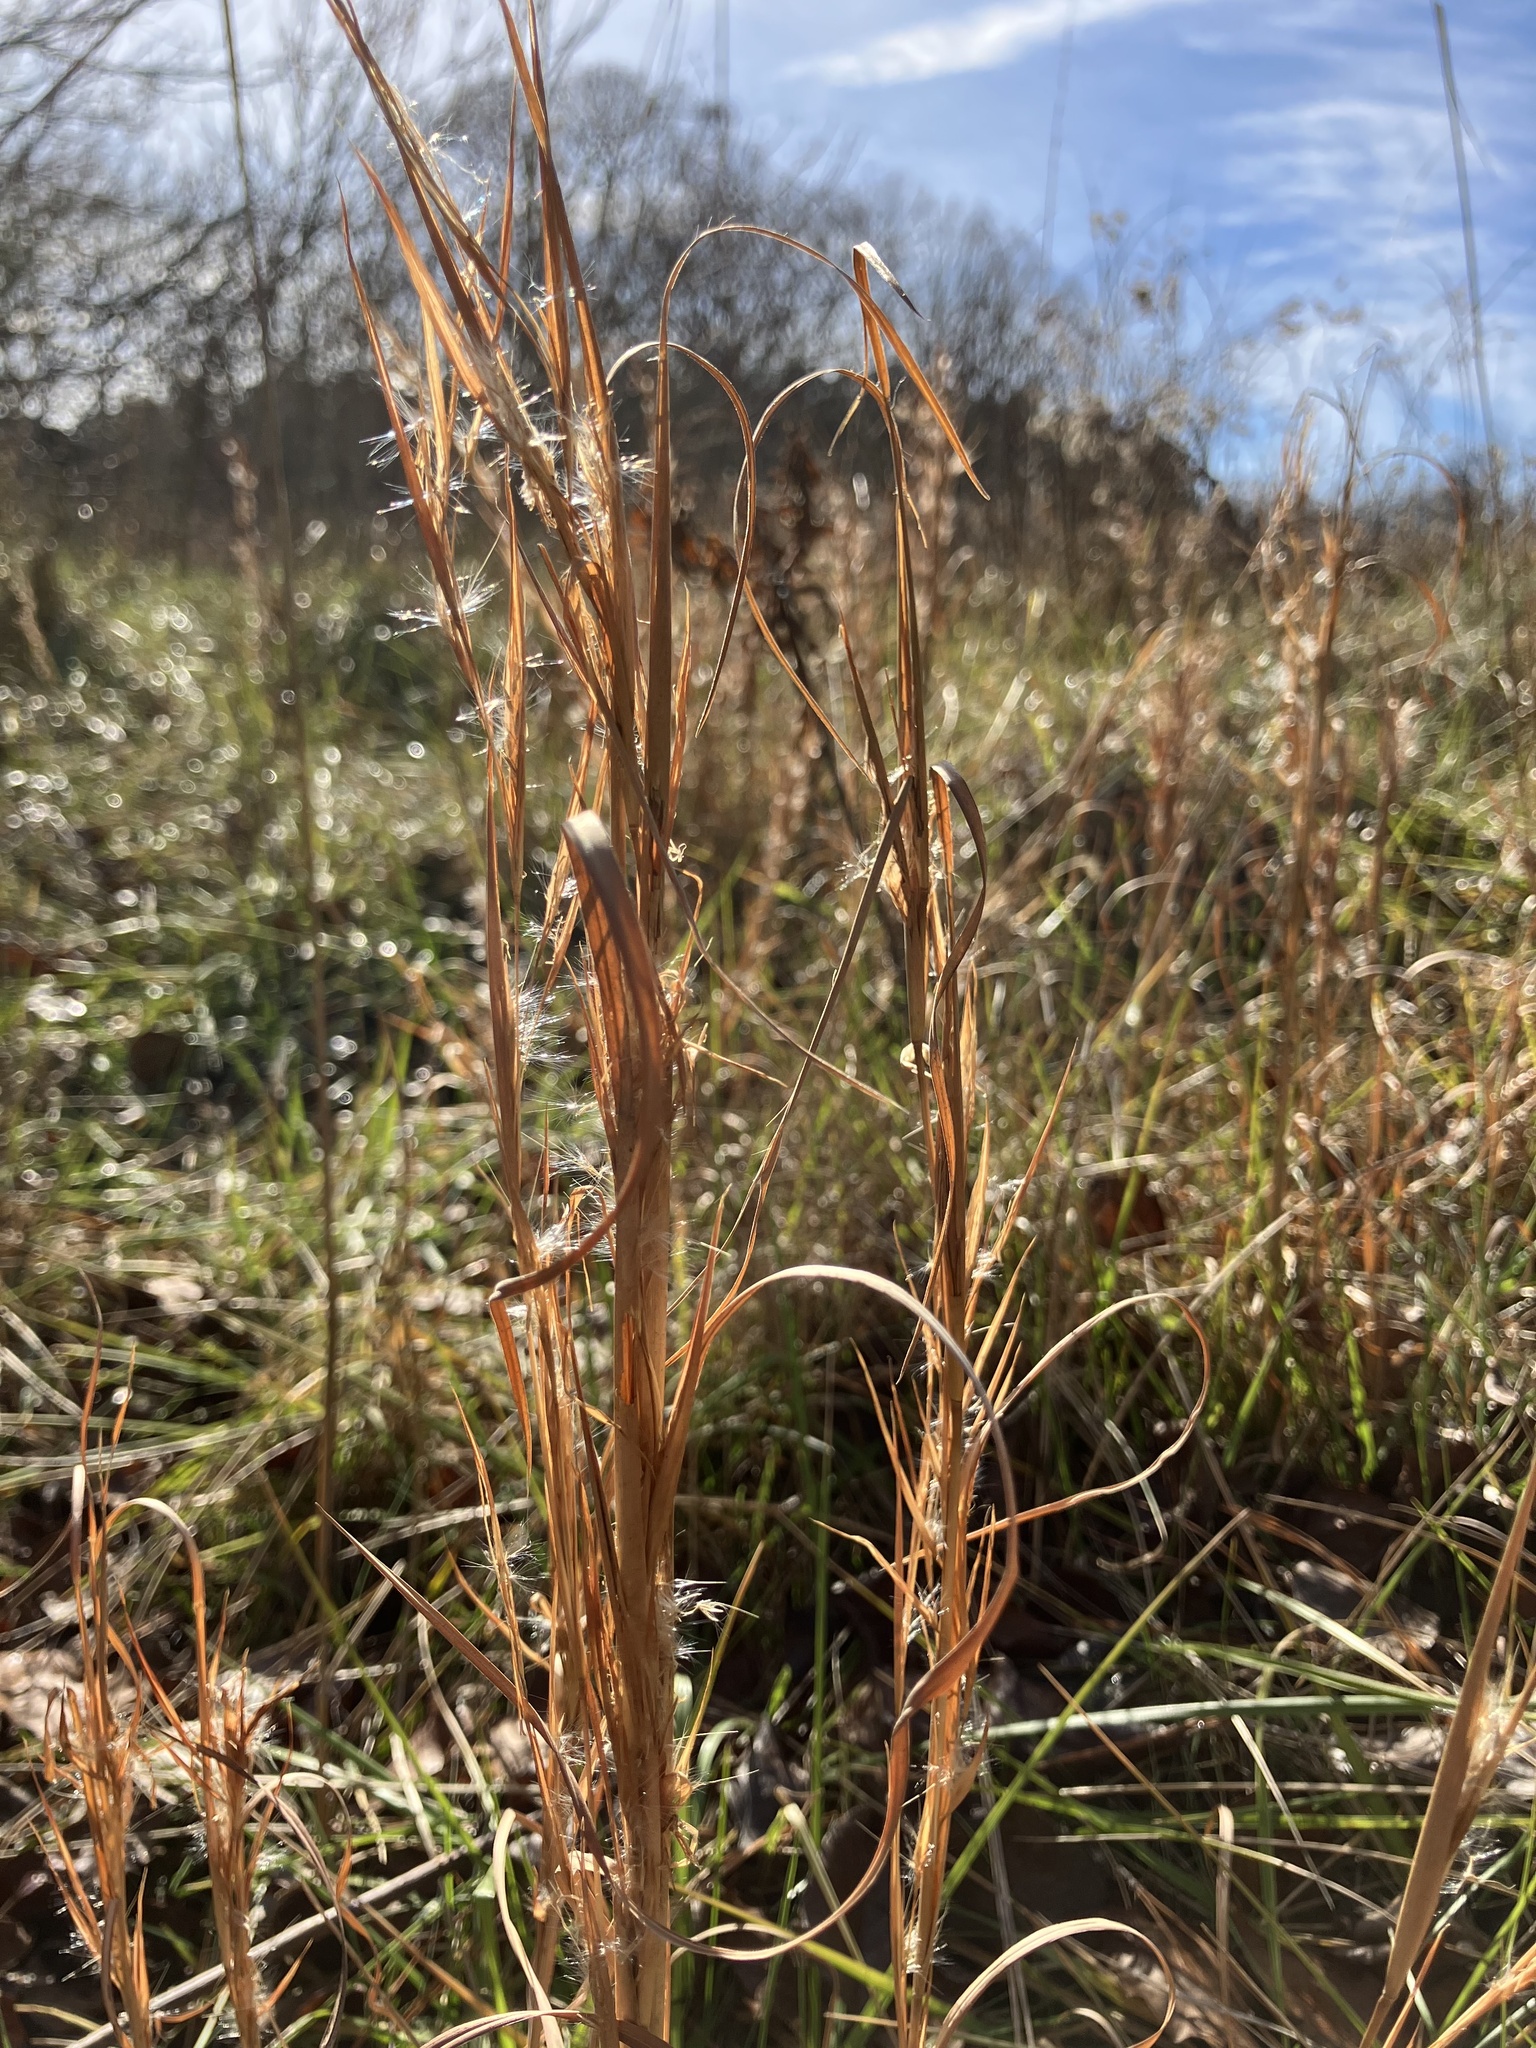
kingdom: Plantae
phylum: Tracheophyta
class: Liliopsida
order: Poales
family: Poaceae
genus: Andropogon
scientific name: Andropogon virginicus
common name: Broomsedge bluestem
